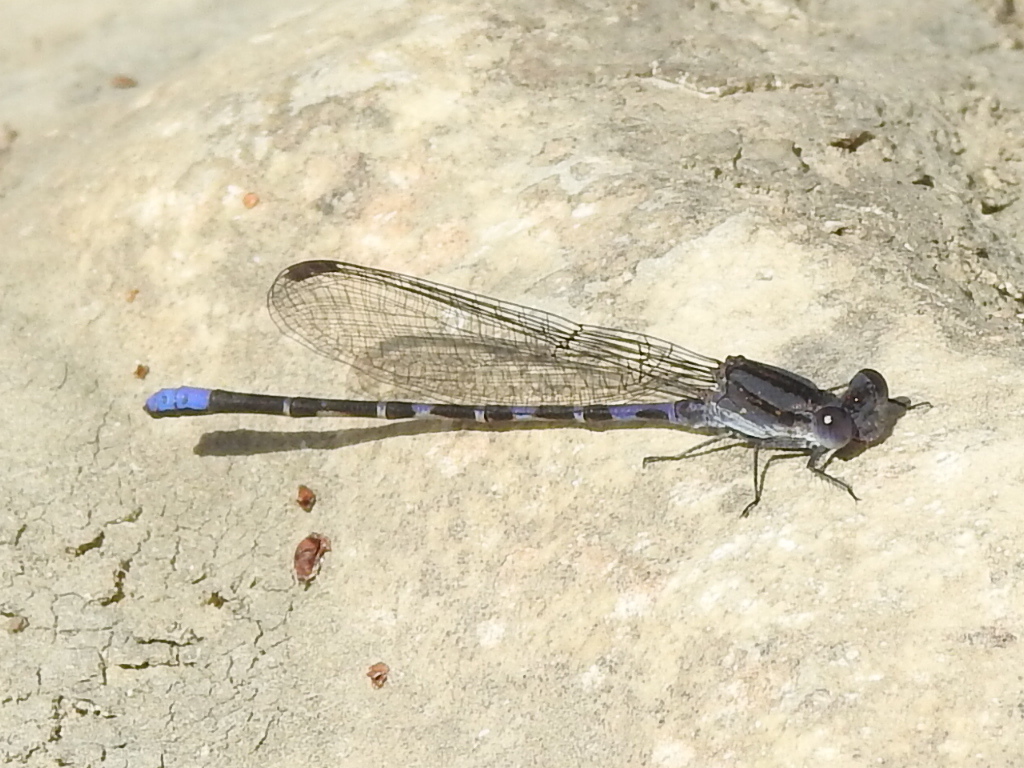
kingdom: Animalia
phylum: Arthropoda
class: Insecta
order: Odonata
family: Coenagrionidae
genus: Argia
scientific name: Argia immunda
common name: Kiowa dancer
